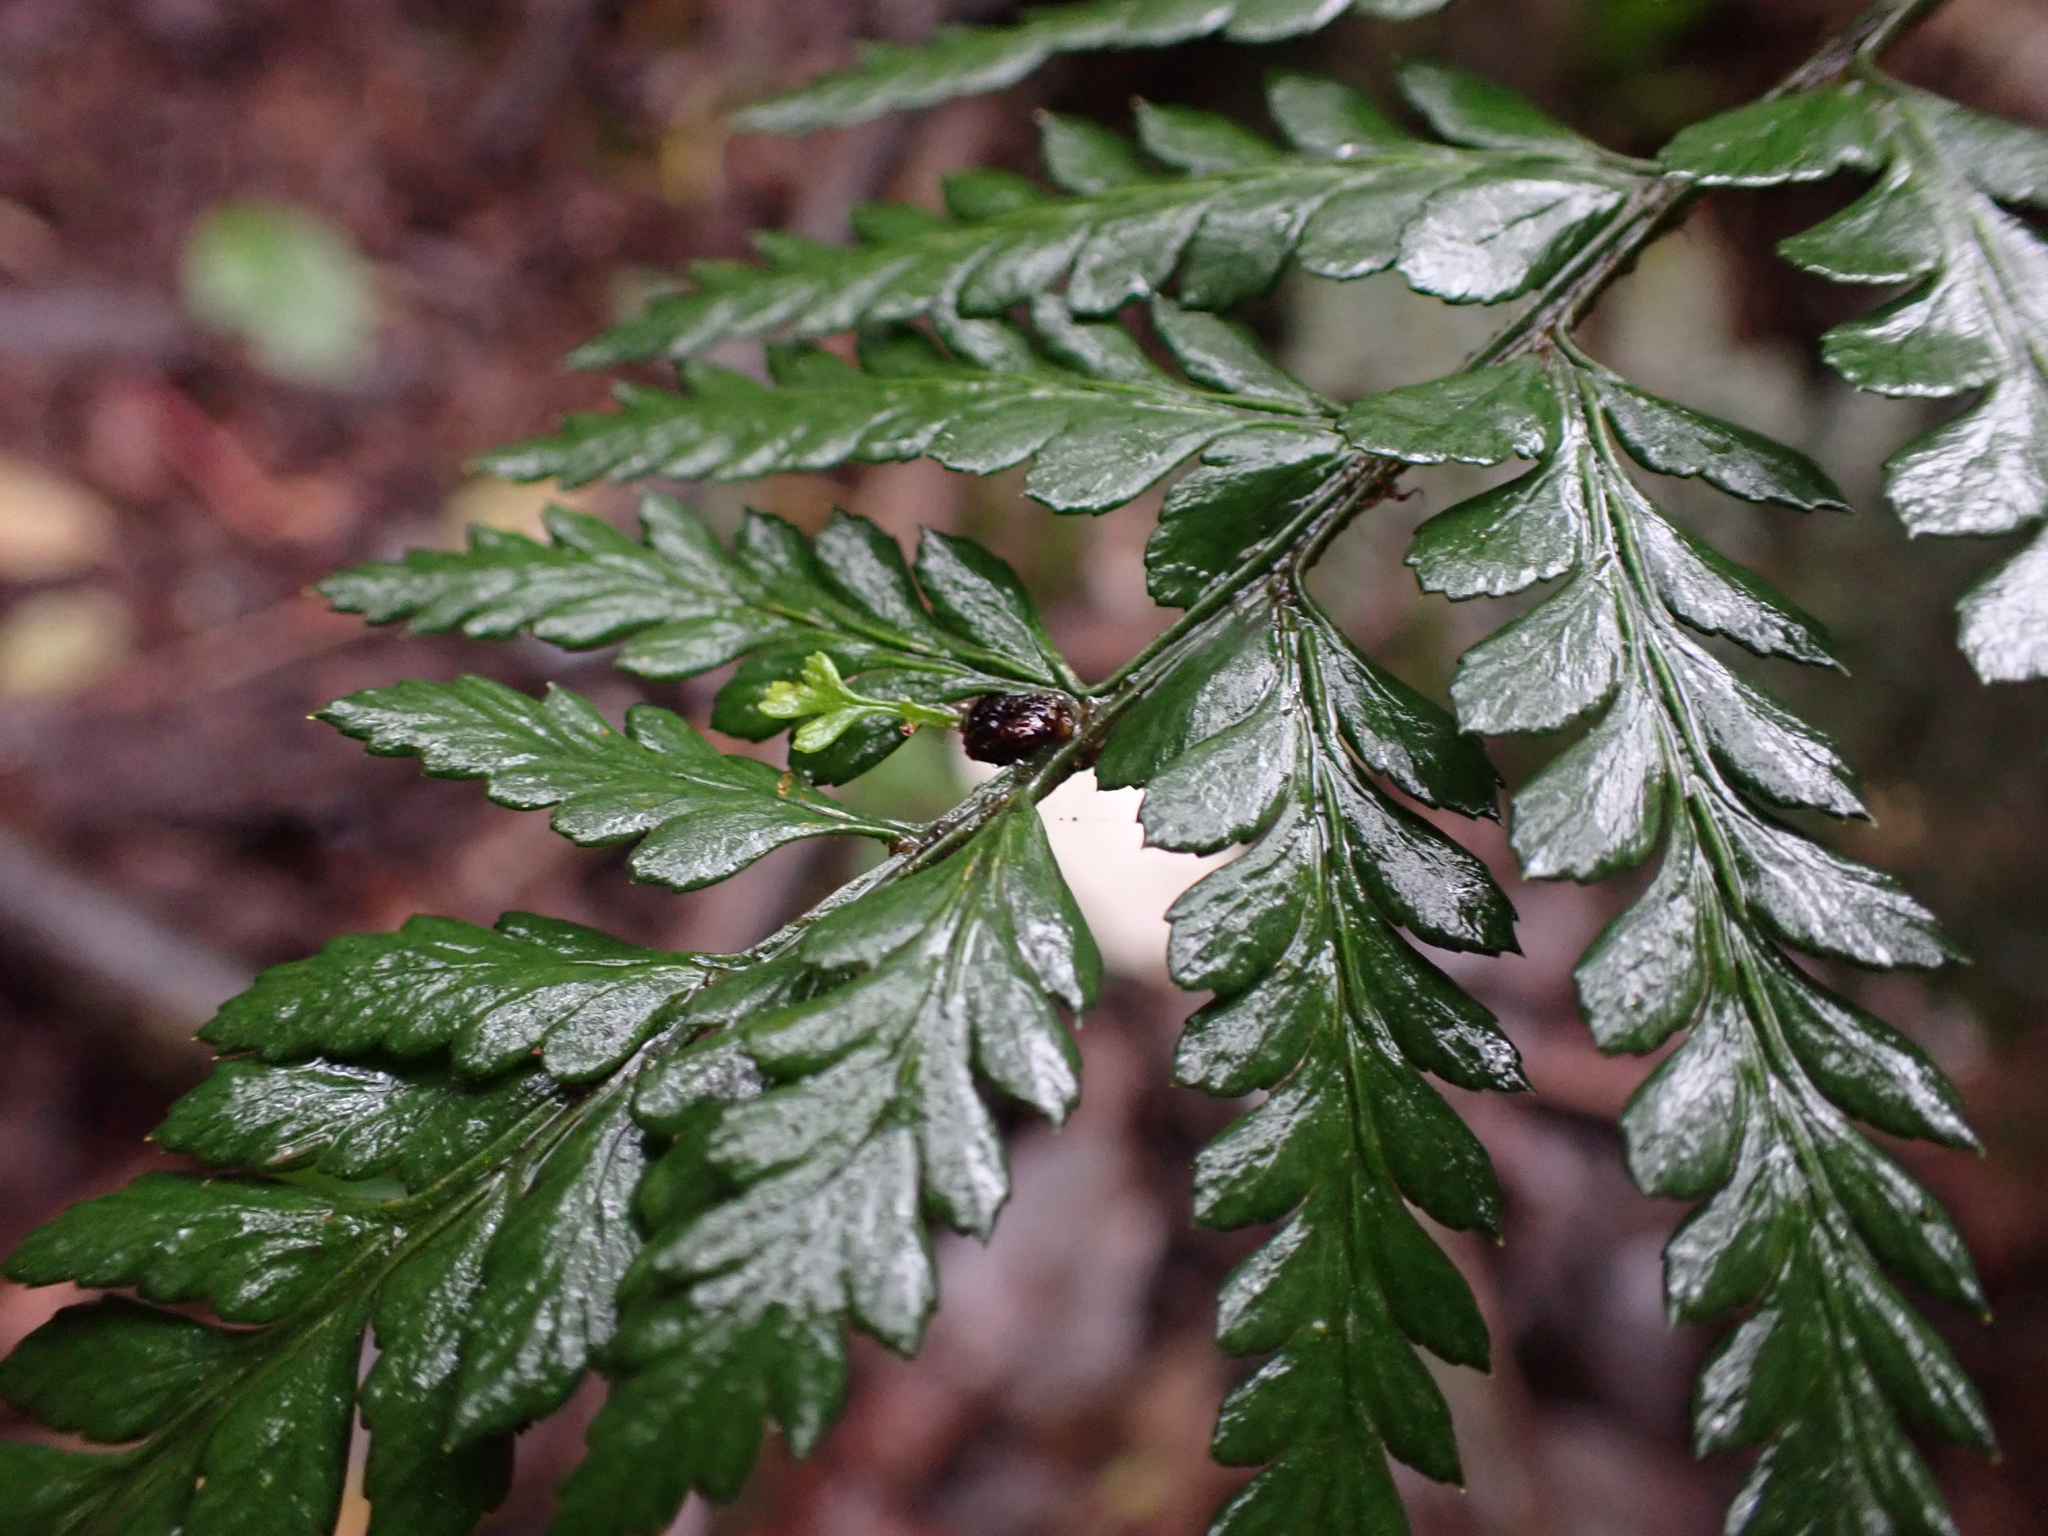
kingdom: Plantae
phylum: Tracheophyta
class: Polypodiopsida
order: Polypodiales
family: Dryopteridaceae
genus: Polystichum
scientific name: Polystichum proliferum
